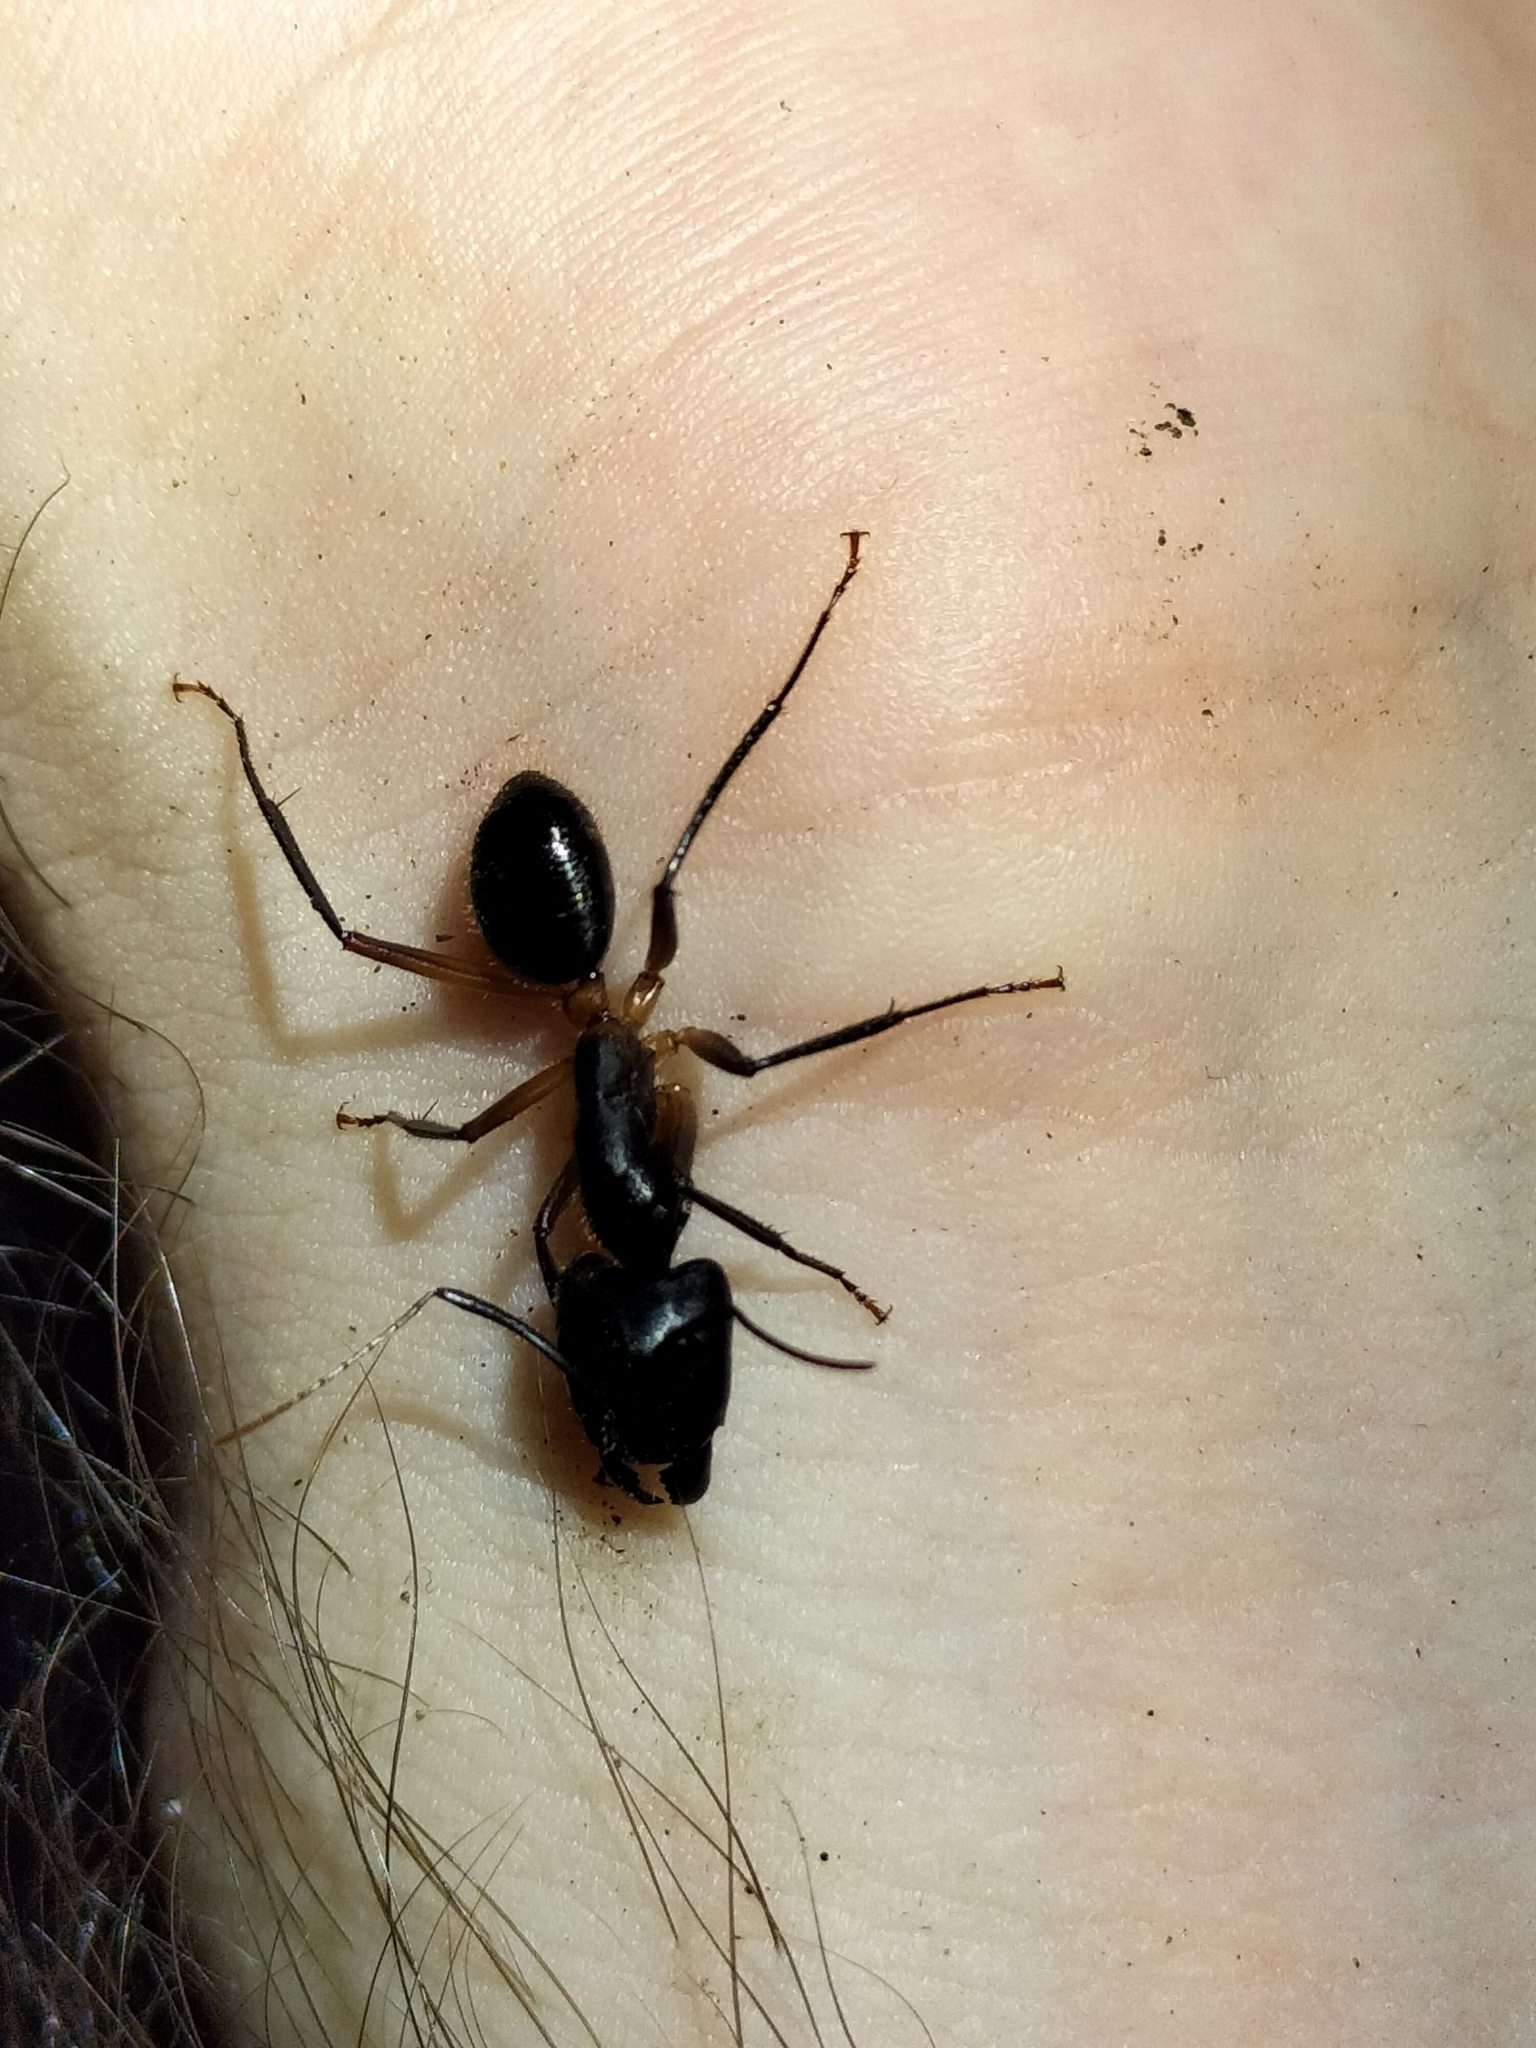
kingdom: Animalia
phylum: Arthropoda
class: Insecta
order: Hymenoptera
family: Formicidae
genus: Camponotus
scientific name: Camponotus
